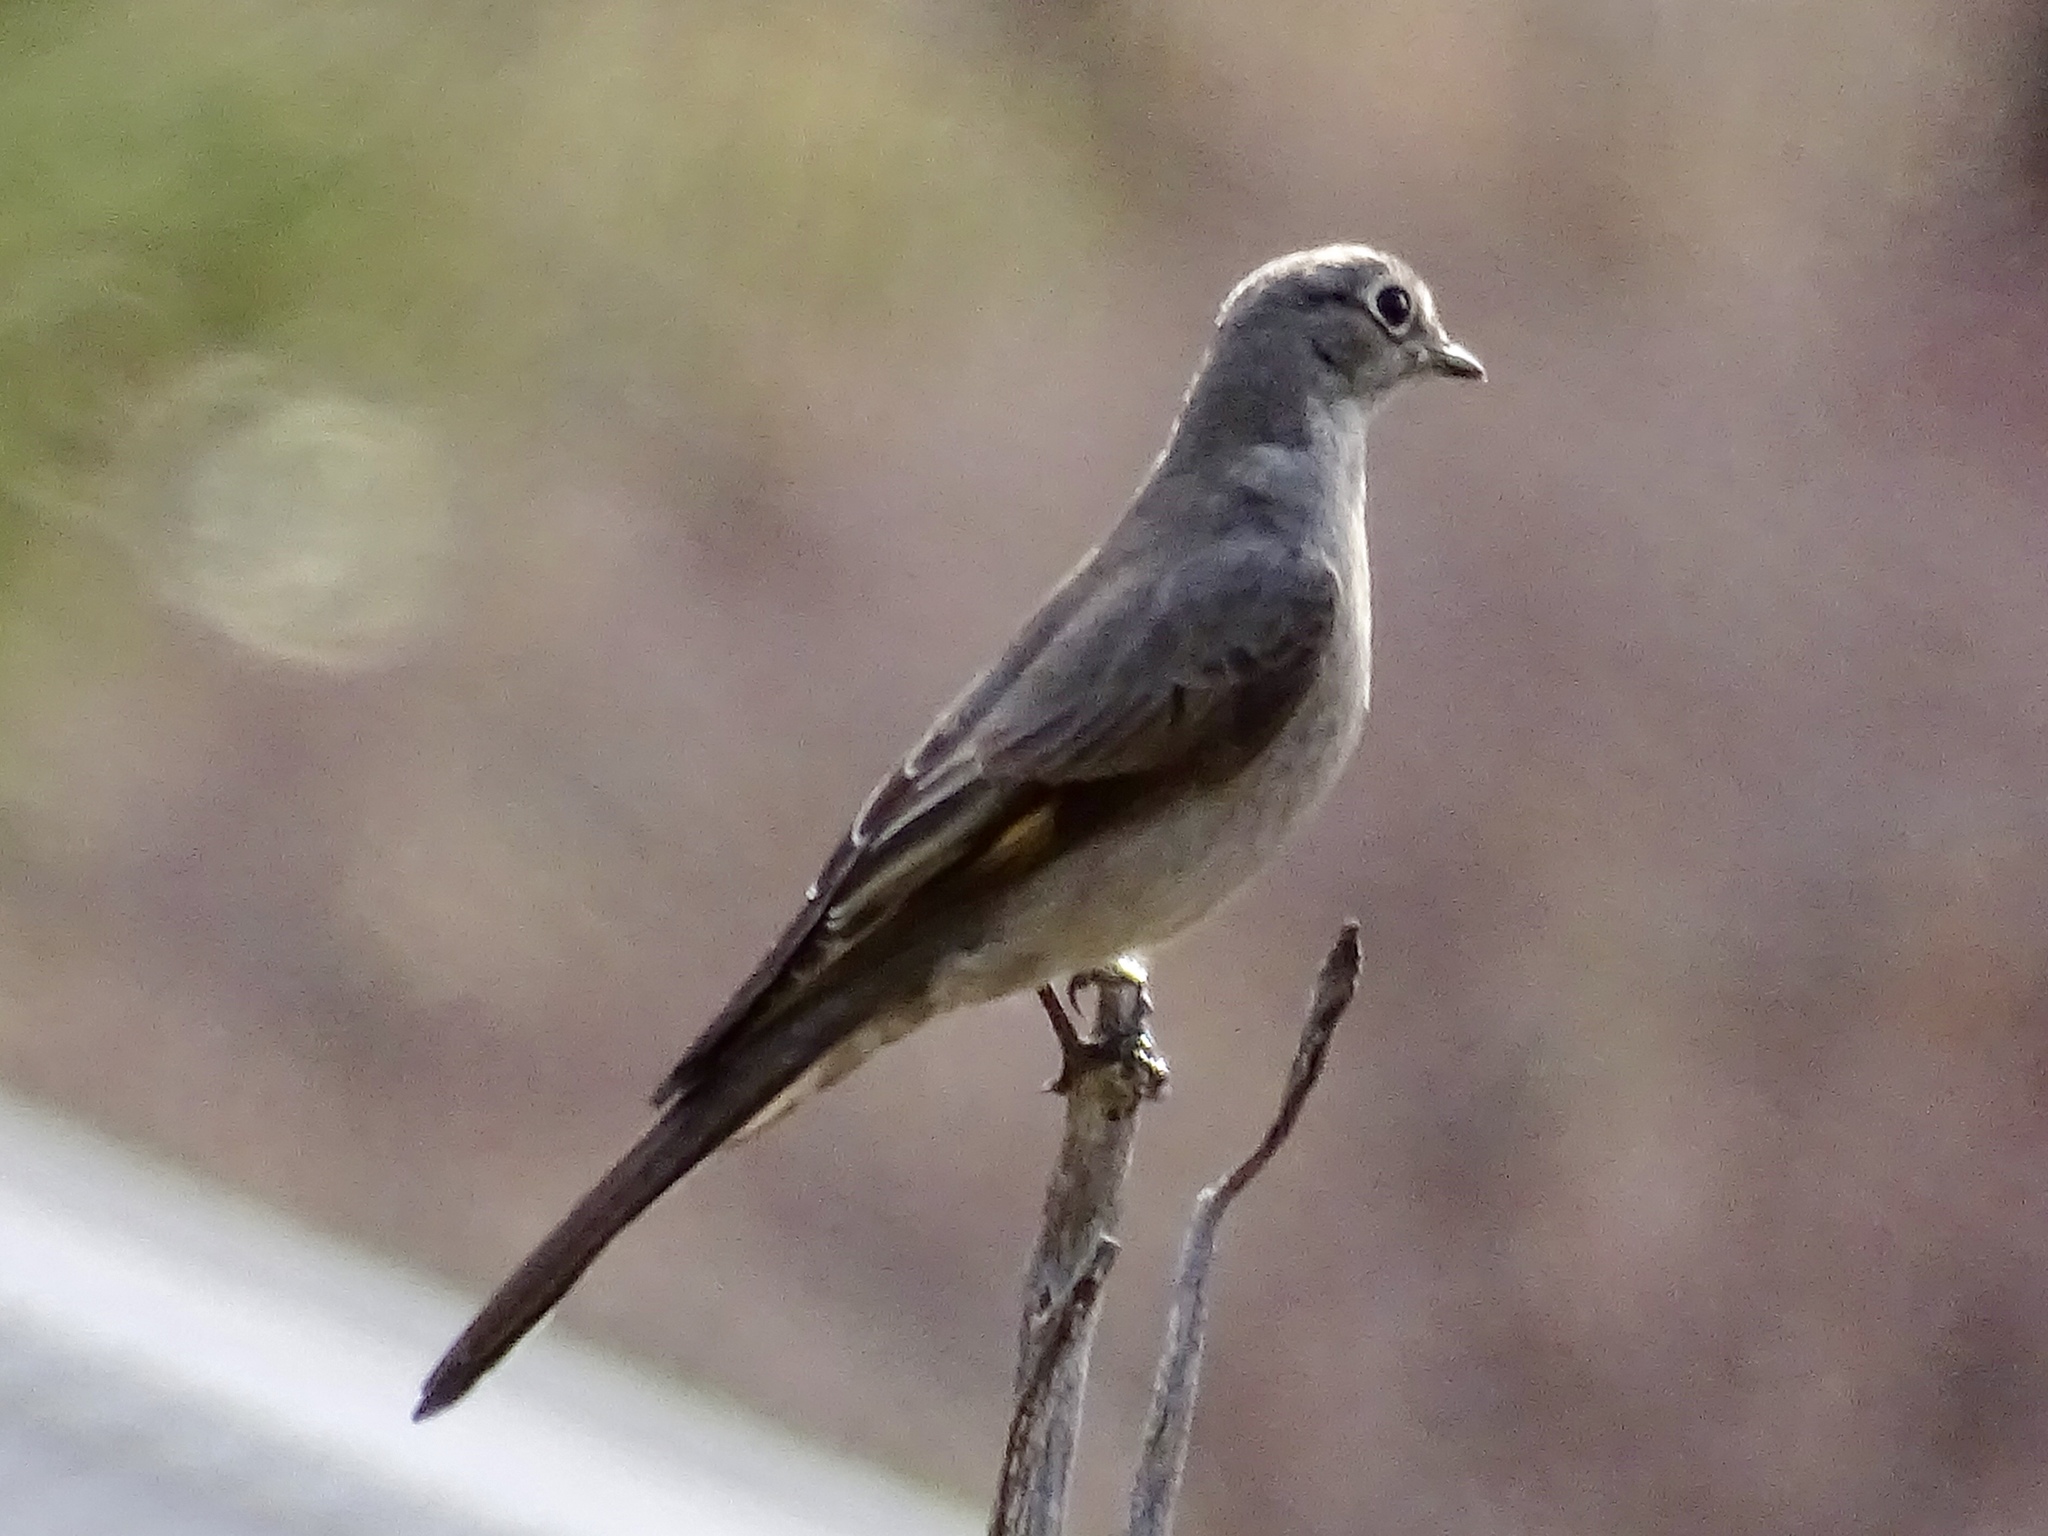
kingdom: Animalia
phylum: Chordata
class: Aves
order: Passeriformes
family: Turdidae
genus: Myadestes
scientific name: Myadestes townsendi
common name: Townsend's solitaire
